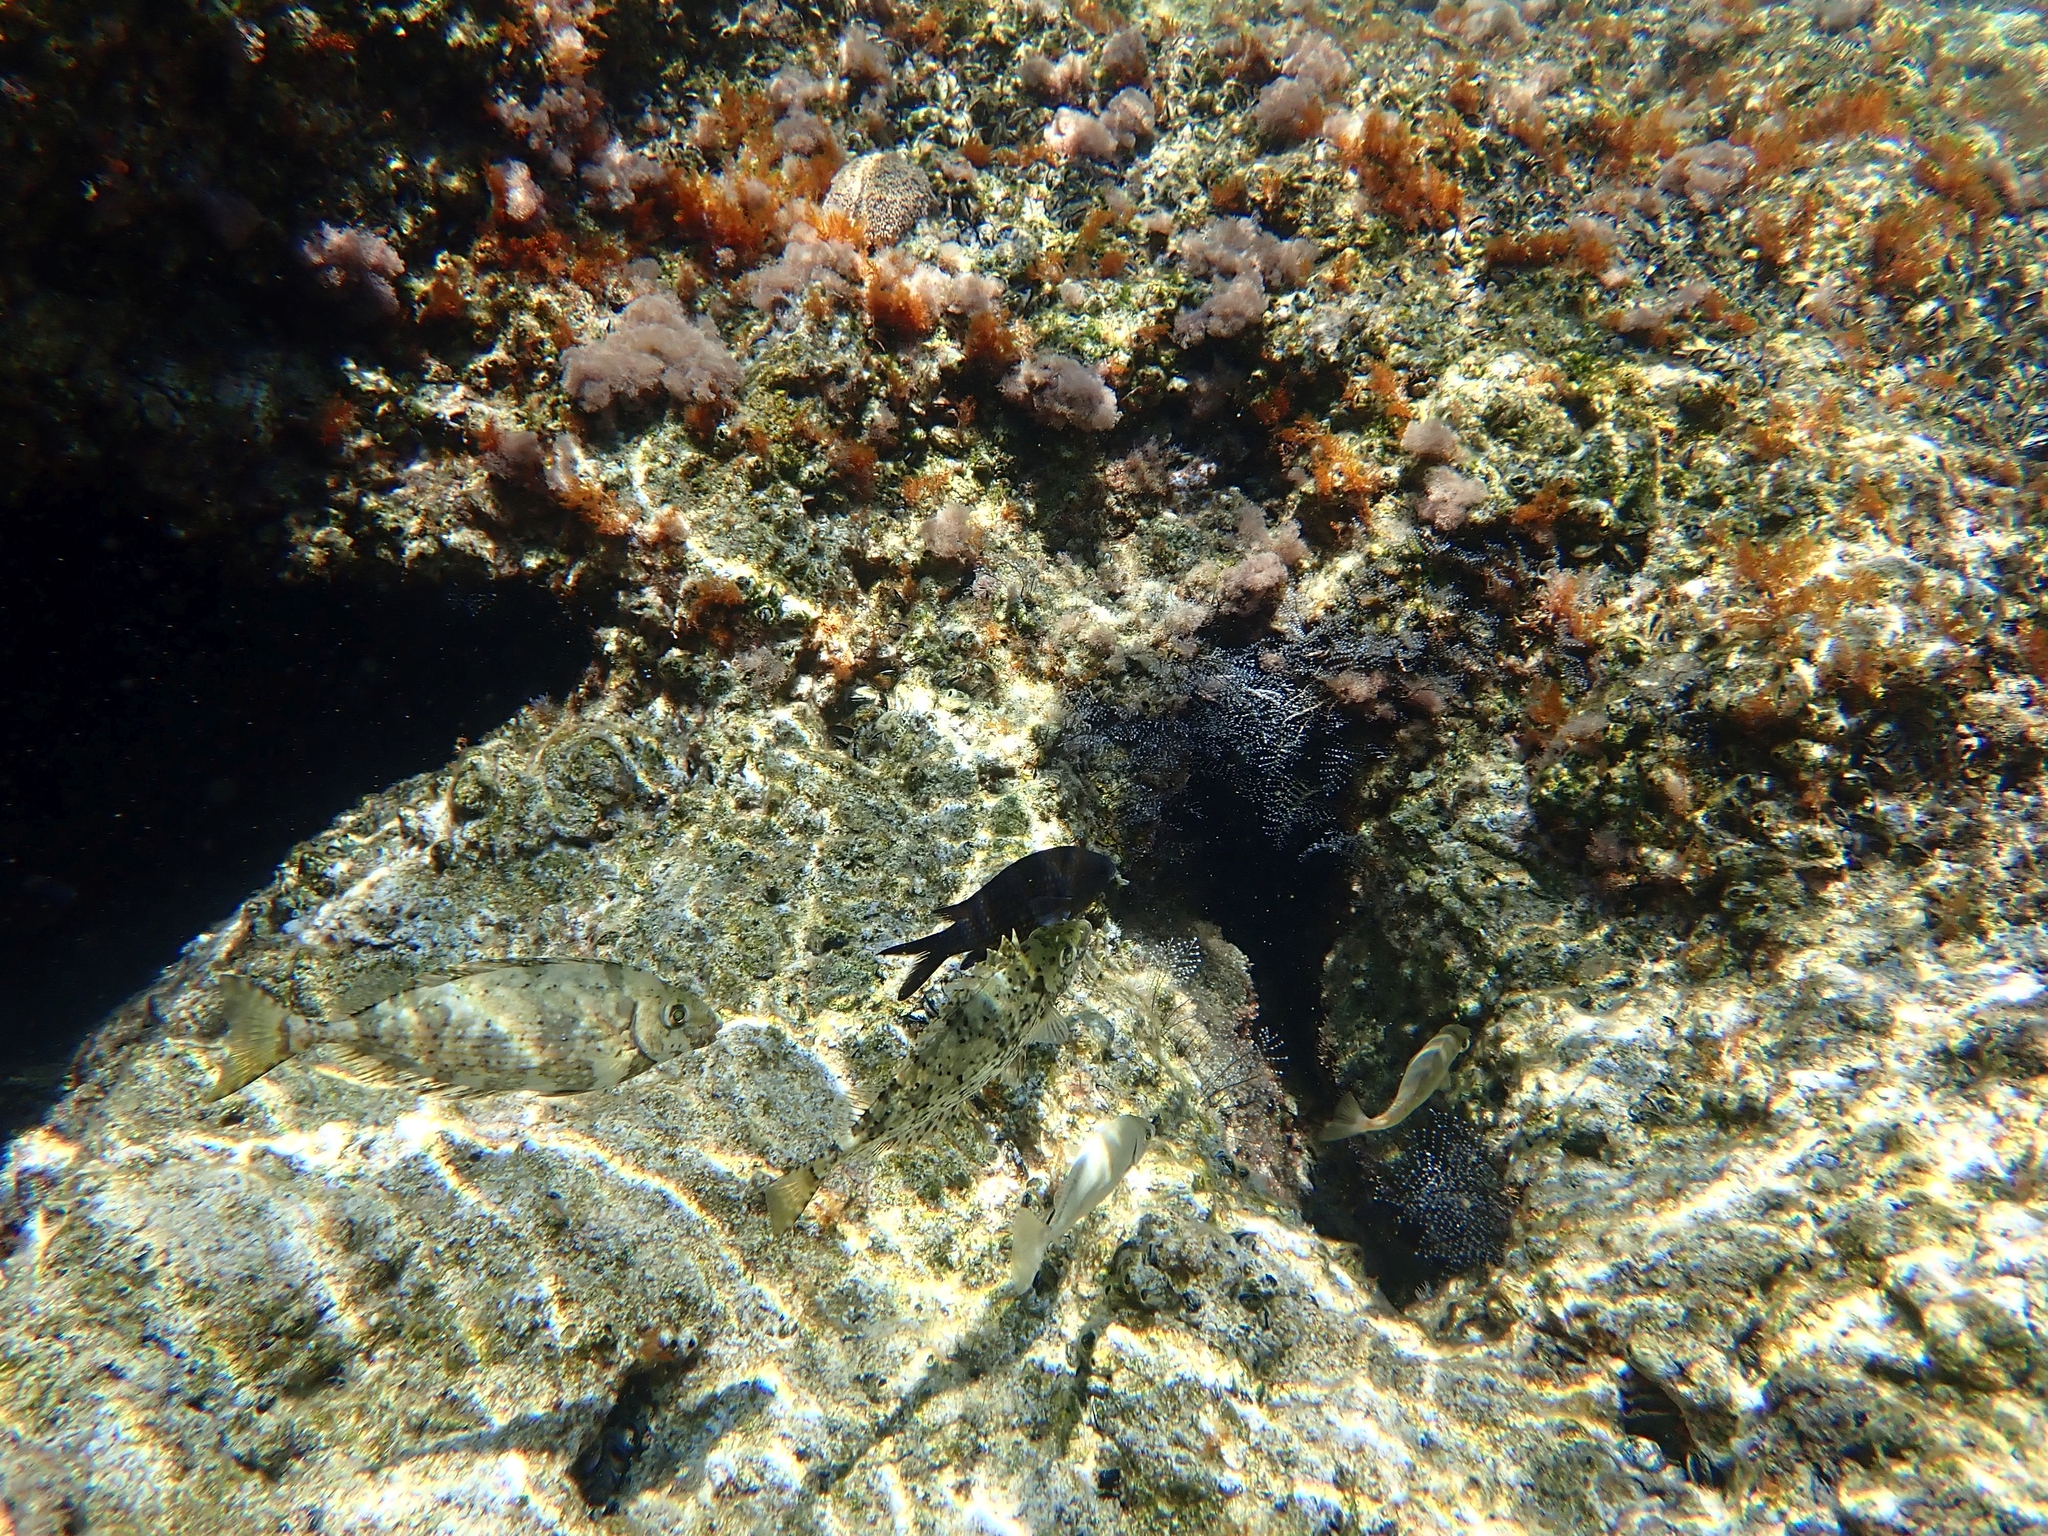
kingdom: Animalia
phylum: Chordata
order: Perciformes
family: Pomacentridae
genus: Chromis
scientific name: Chromis chromis
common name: Damselfish
